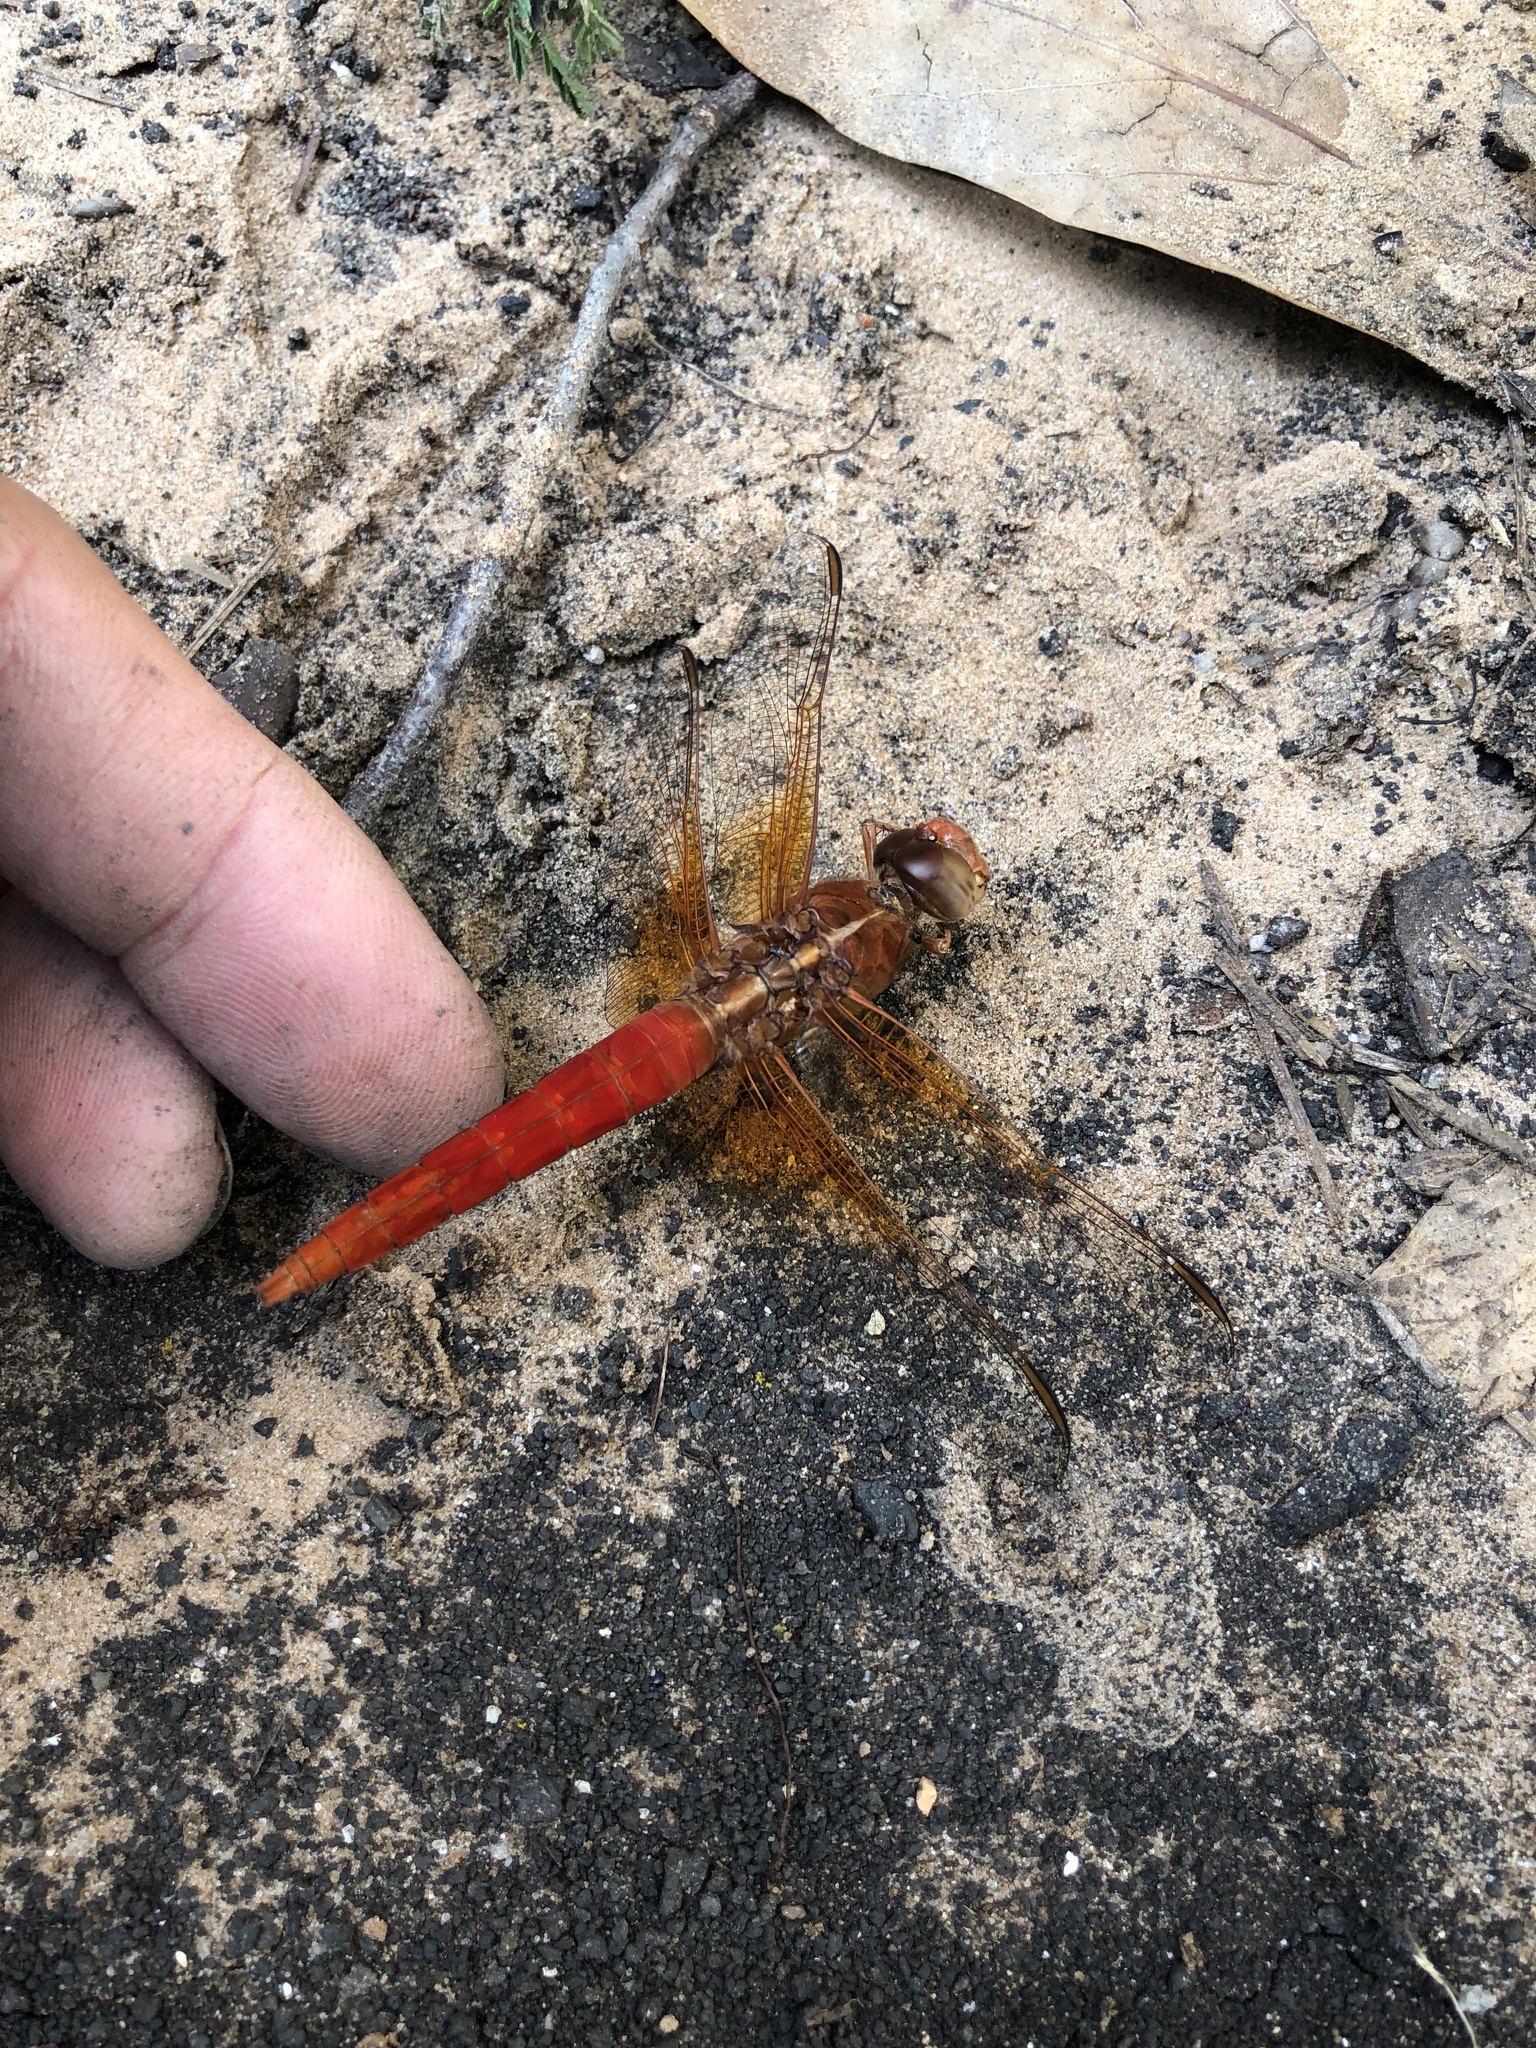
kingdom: Animalia
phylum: Arthropoda
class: Insecta
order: Odonata
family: Libellulidae
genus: Libellula
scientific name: Libellula croceipennis
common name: Neon skimmer
